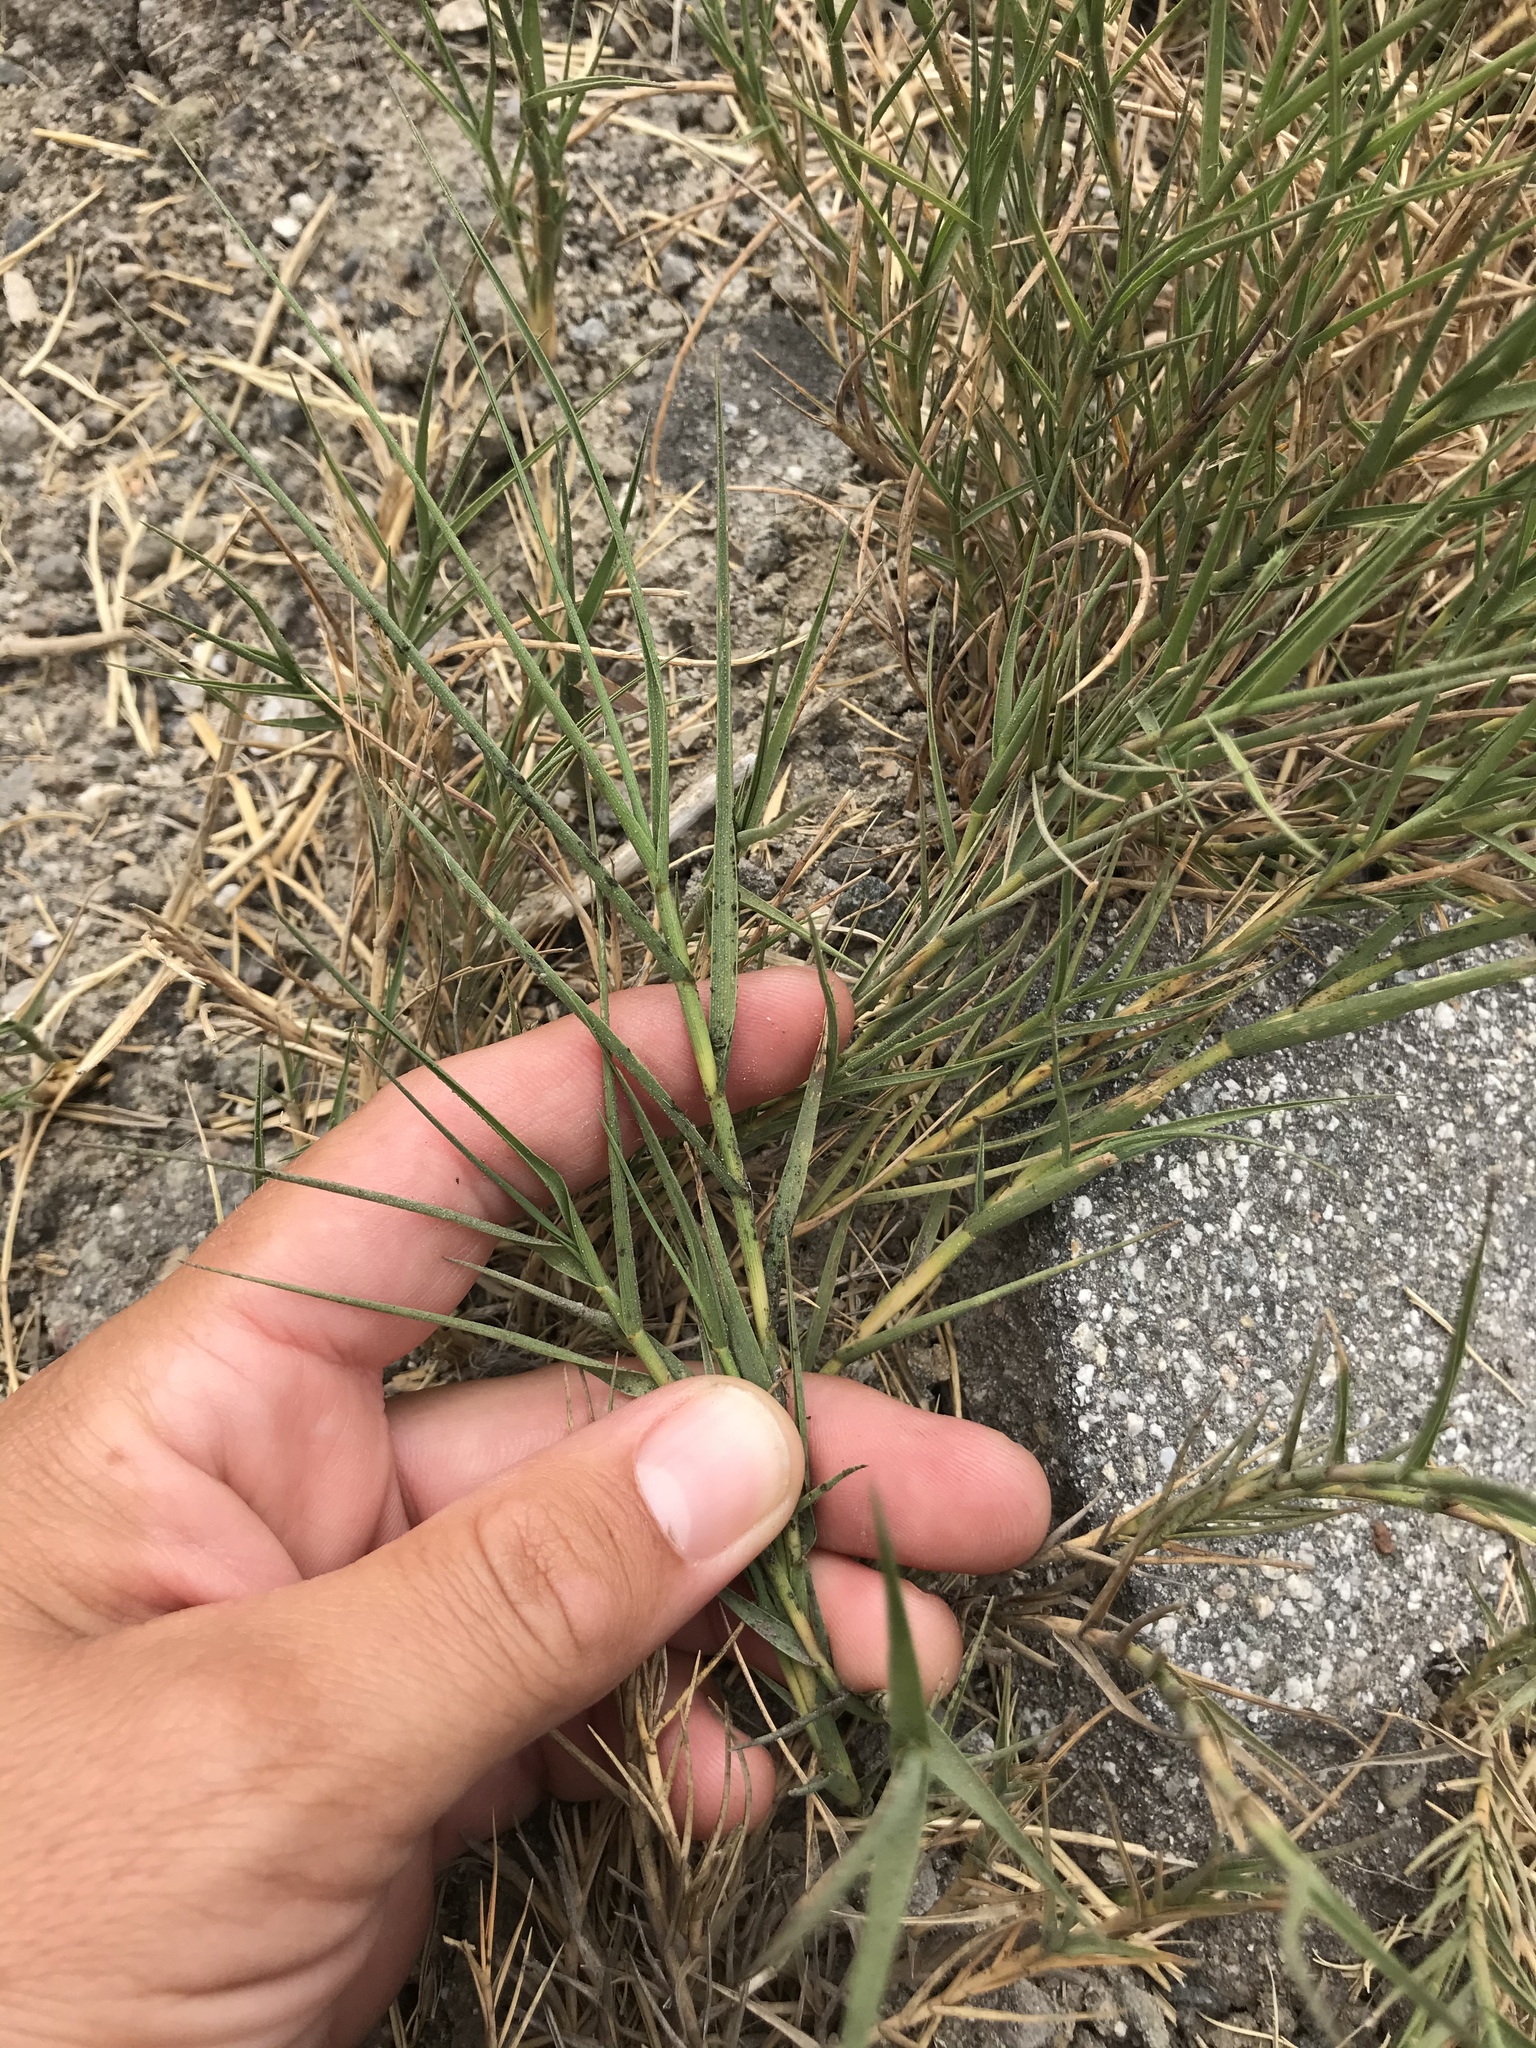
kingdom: Plantae
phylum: Tracheophyta
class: Liliopsida
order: Poales
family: Poaceae
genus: Distichlis
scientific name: Distichlis spicata
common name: Saltgrass
